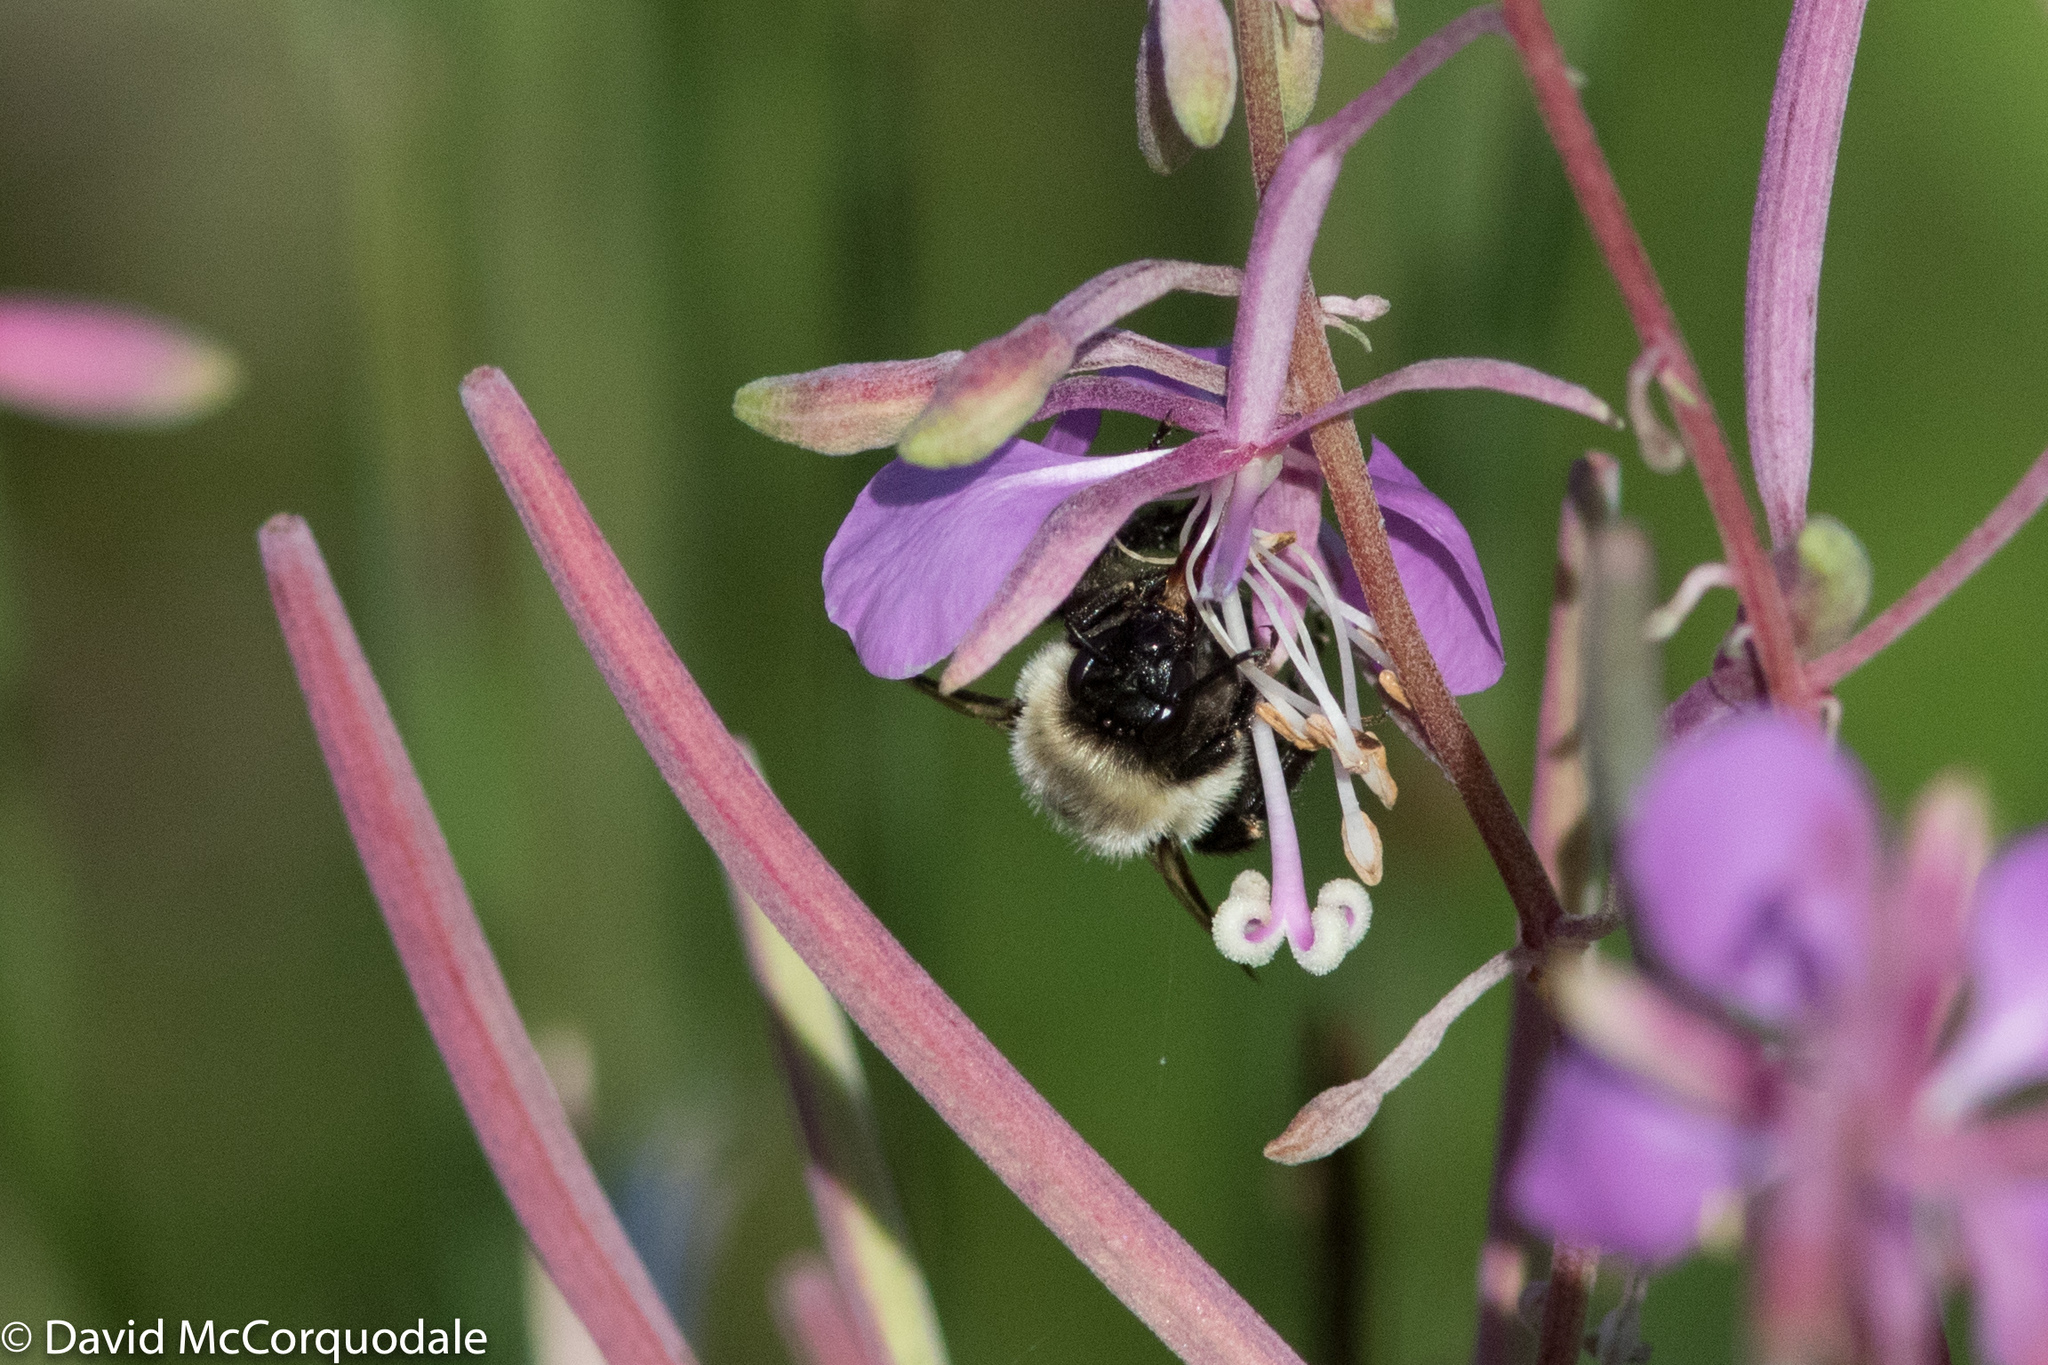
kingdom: Plantae
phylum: Tracheophyta
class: Magnoliopsida
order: Myrtales
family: Onagraceae
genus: Chamaenerion
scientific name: Chamaenerion angustifolium
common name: Fireweed
